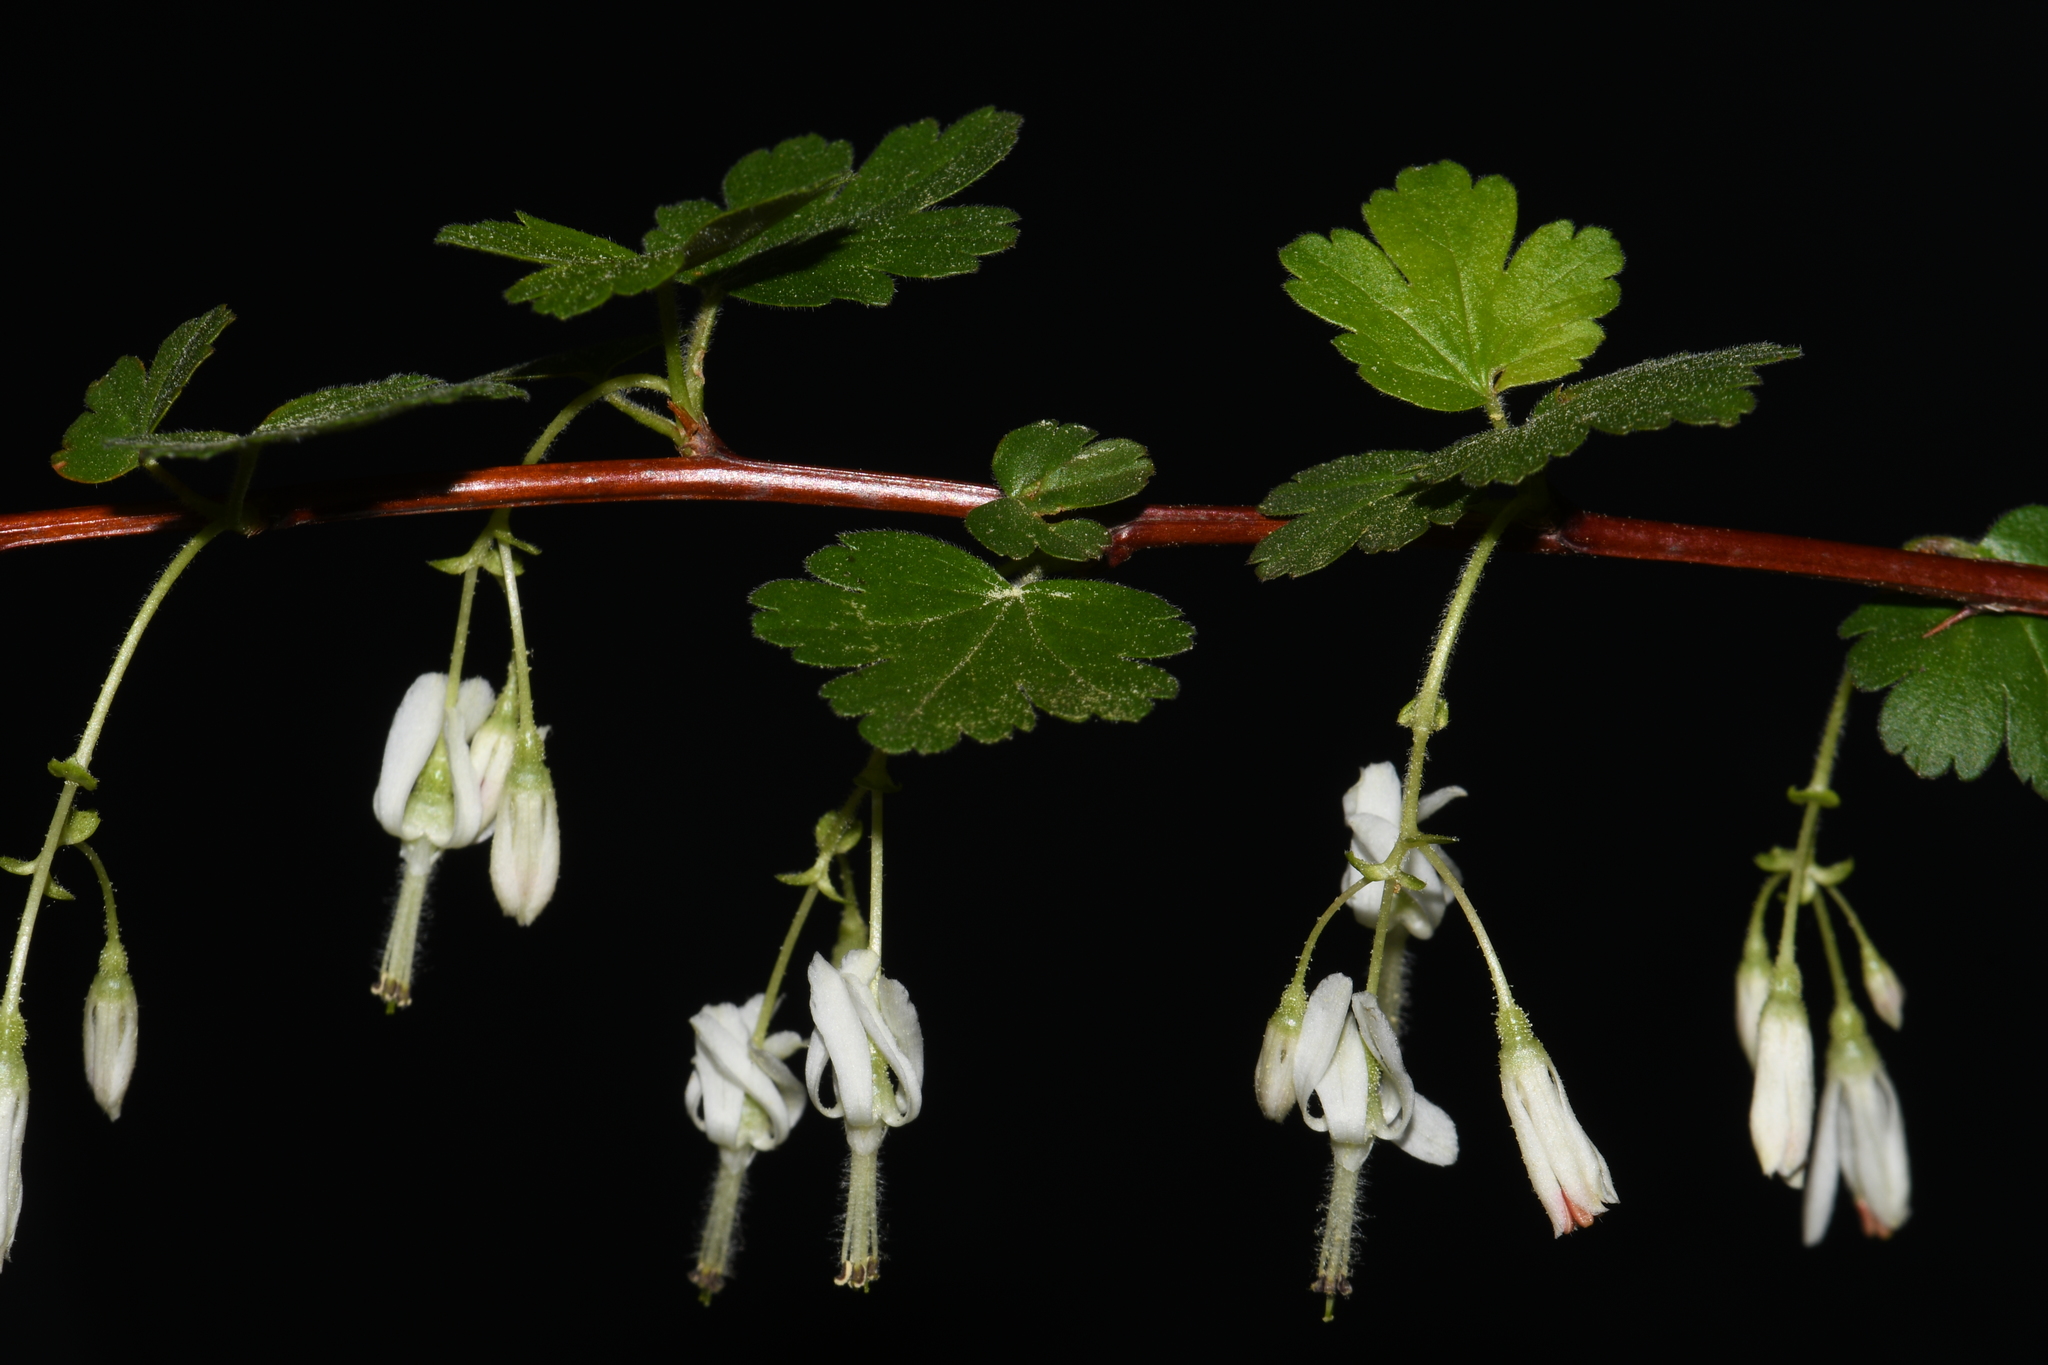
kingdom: Plantae
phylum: Tracheophyta
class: Magnoliopsida
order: Saxifragales
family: Grossulariaceae
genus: Ribes
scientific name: Ribes curvatum
